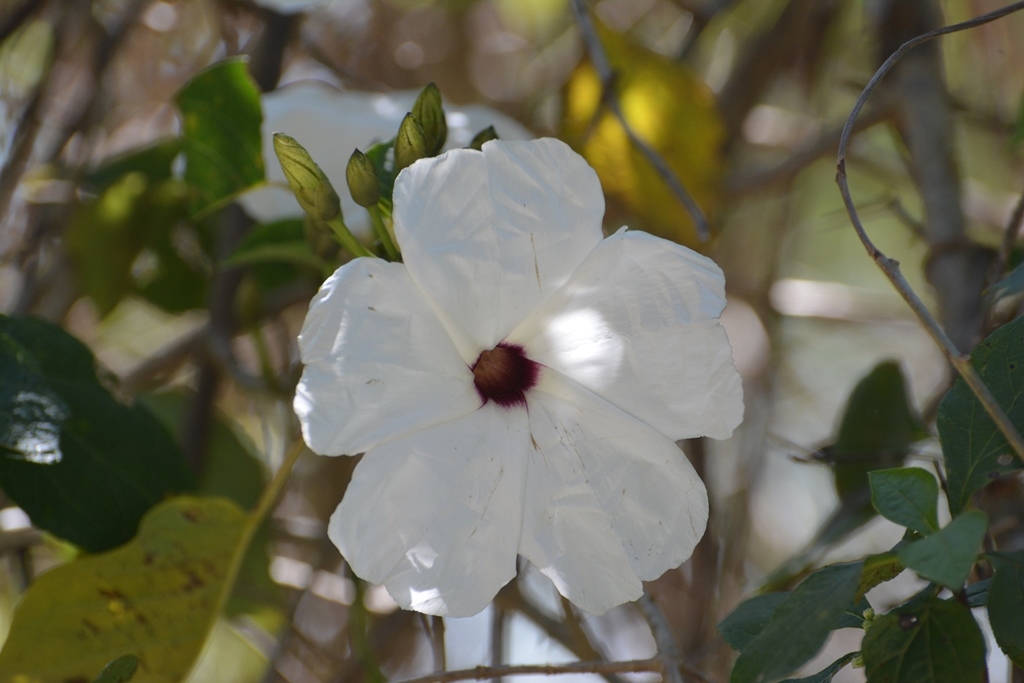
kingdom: Plantae
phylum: Tracheophyta
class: Magnoliopsida
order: Solanales
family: Convolvulaceae
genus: Ipomoea
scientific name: Ipomoea pauciflora
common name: Tree morningglory
